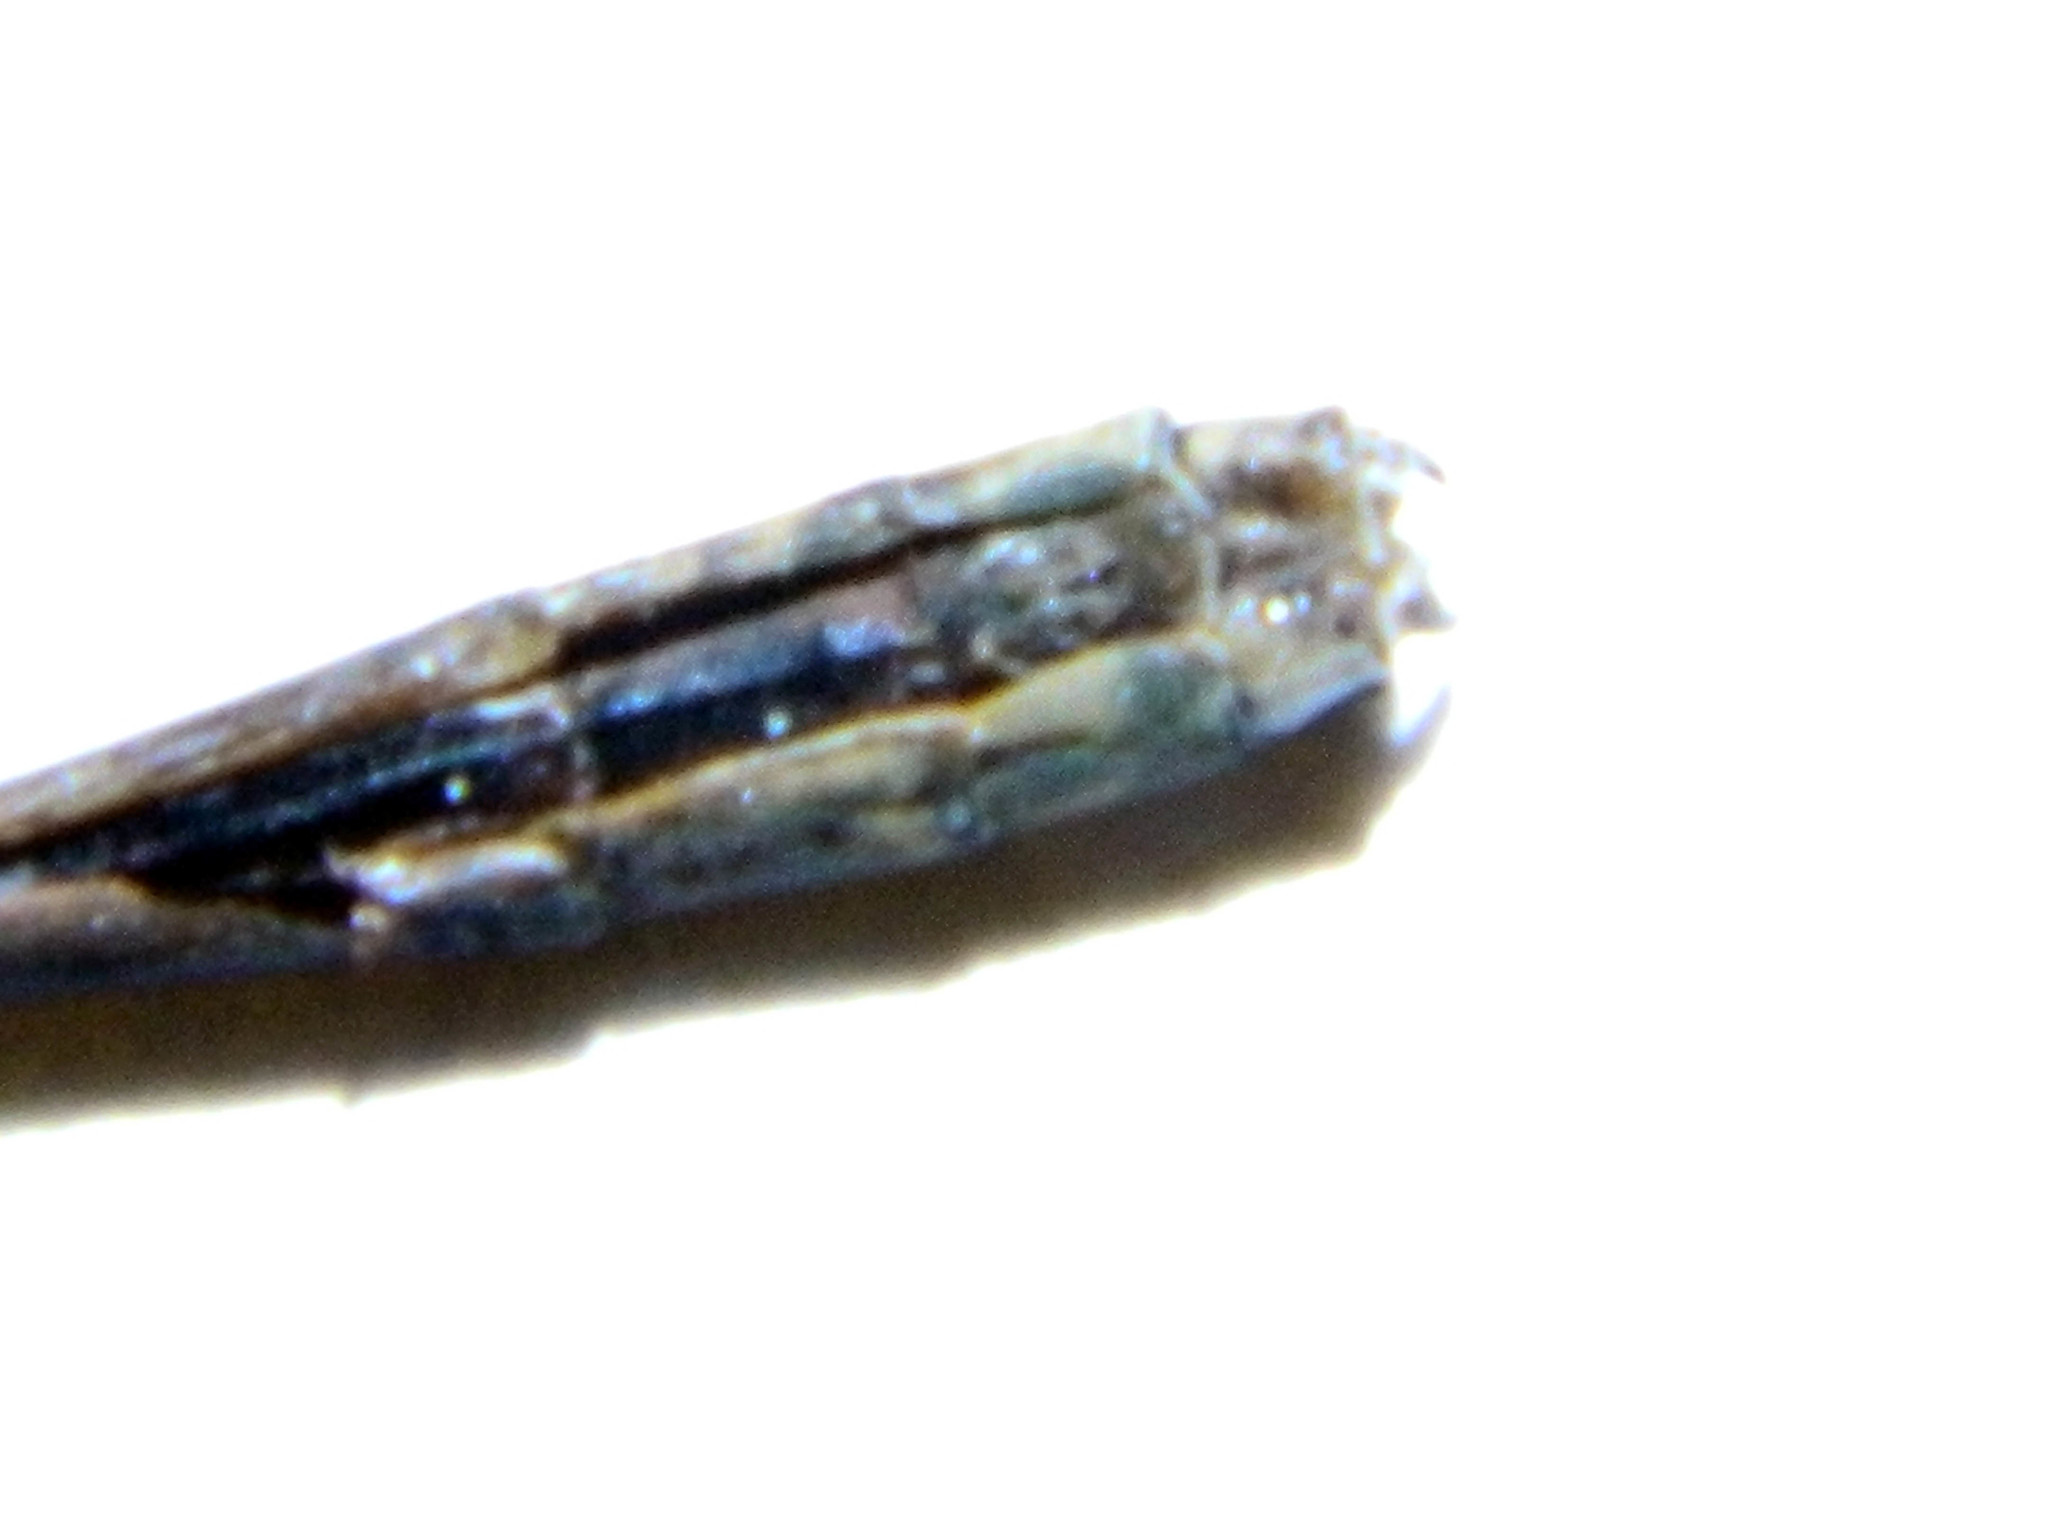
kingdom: Animalia
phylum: Arthropoda
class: Insecta
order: Odonata
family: Coenagrionidae
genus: Enallagma
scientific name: Enallagma annexum
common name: Northern bluet
